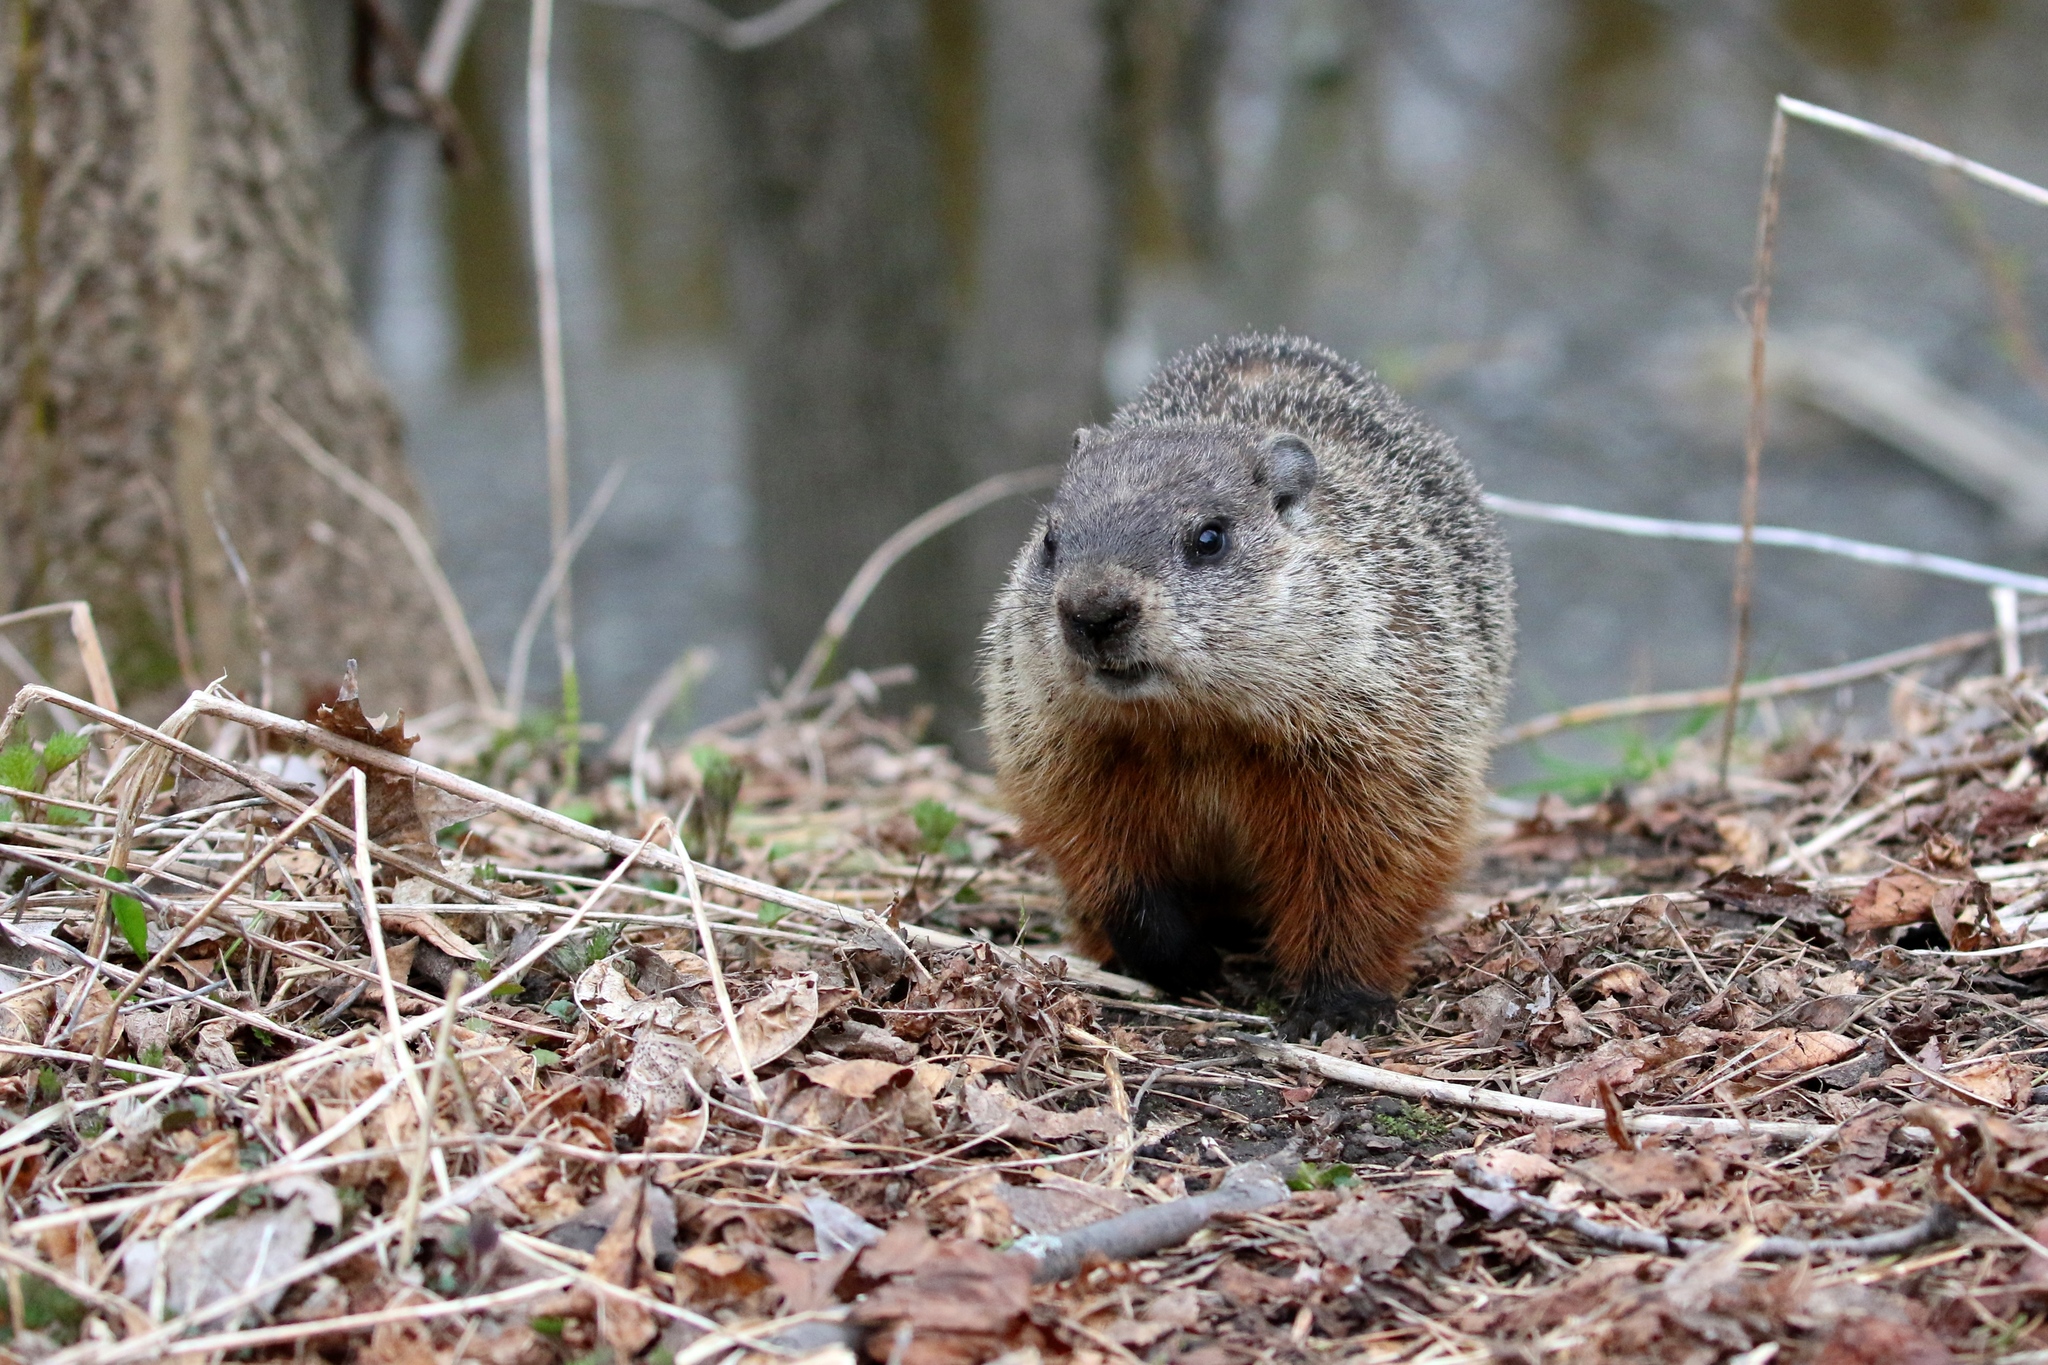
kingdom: Animalia
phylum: Chordata
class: Mammalia
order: Rodentia
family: Sciuridae
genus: Marmota
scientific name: Marmota monax
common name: Groundhog
